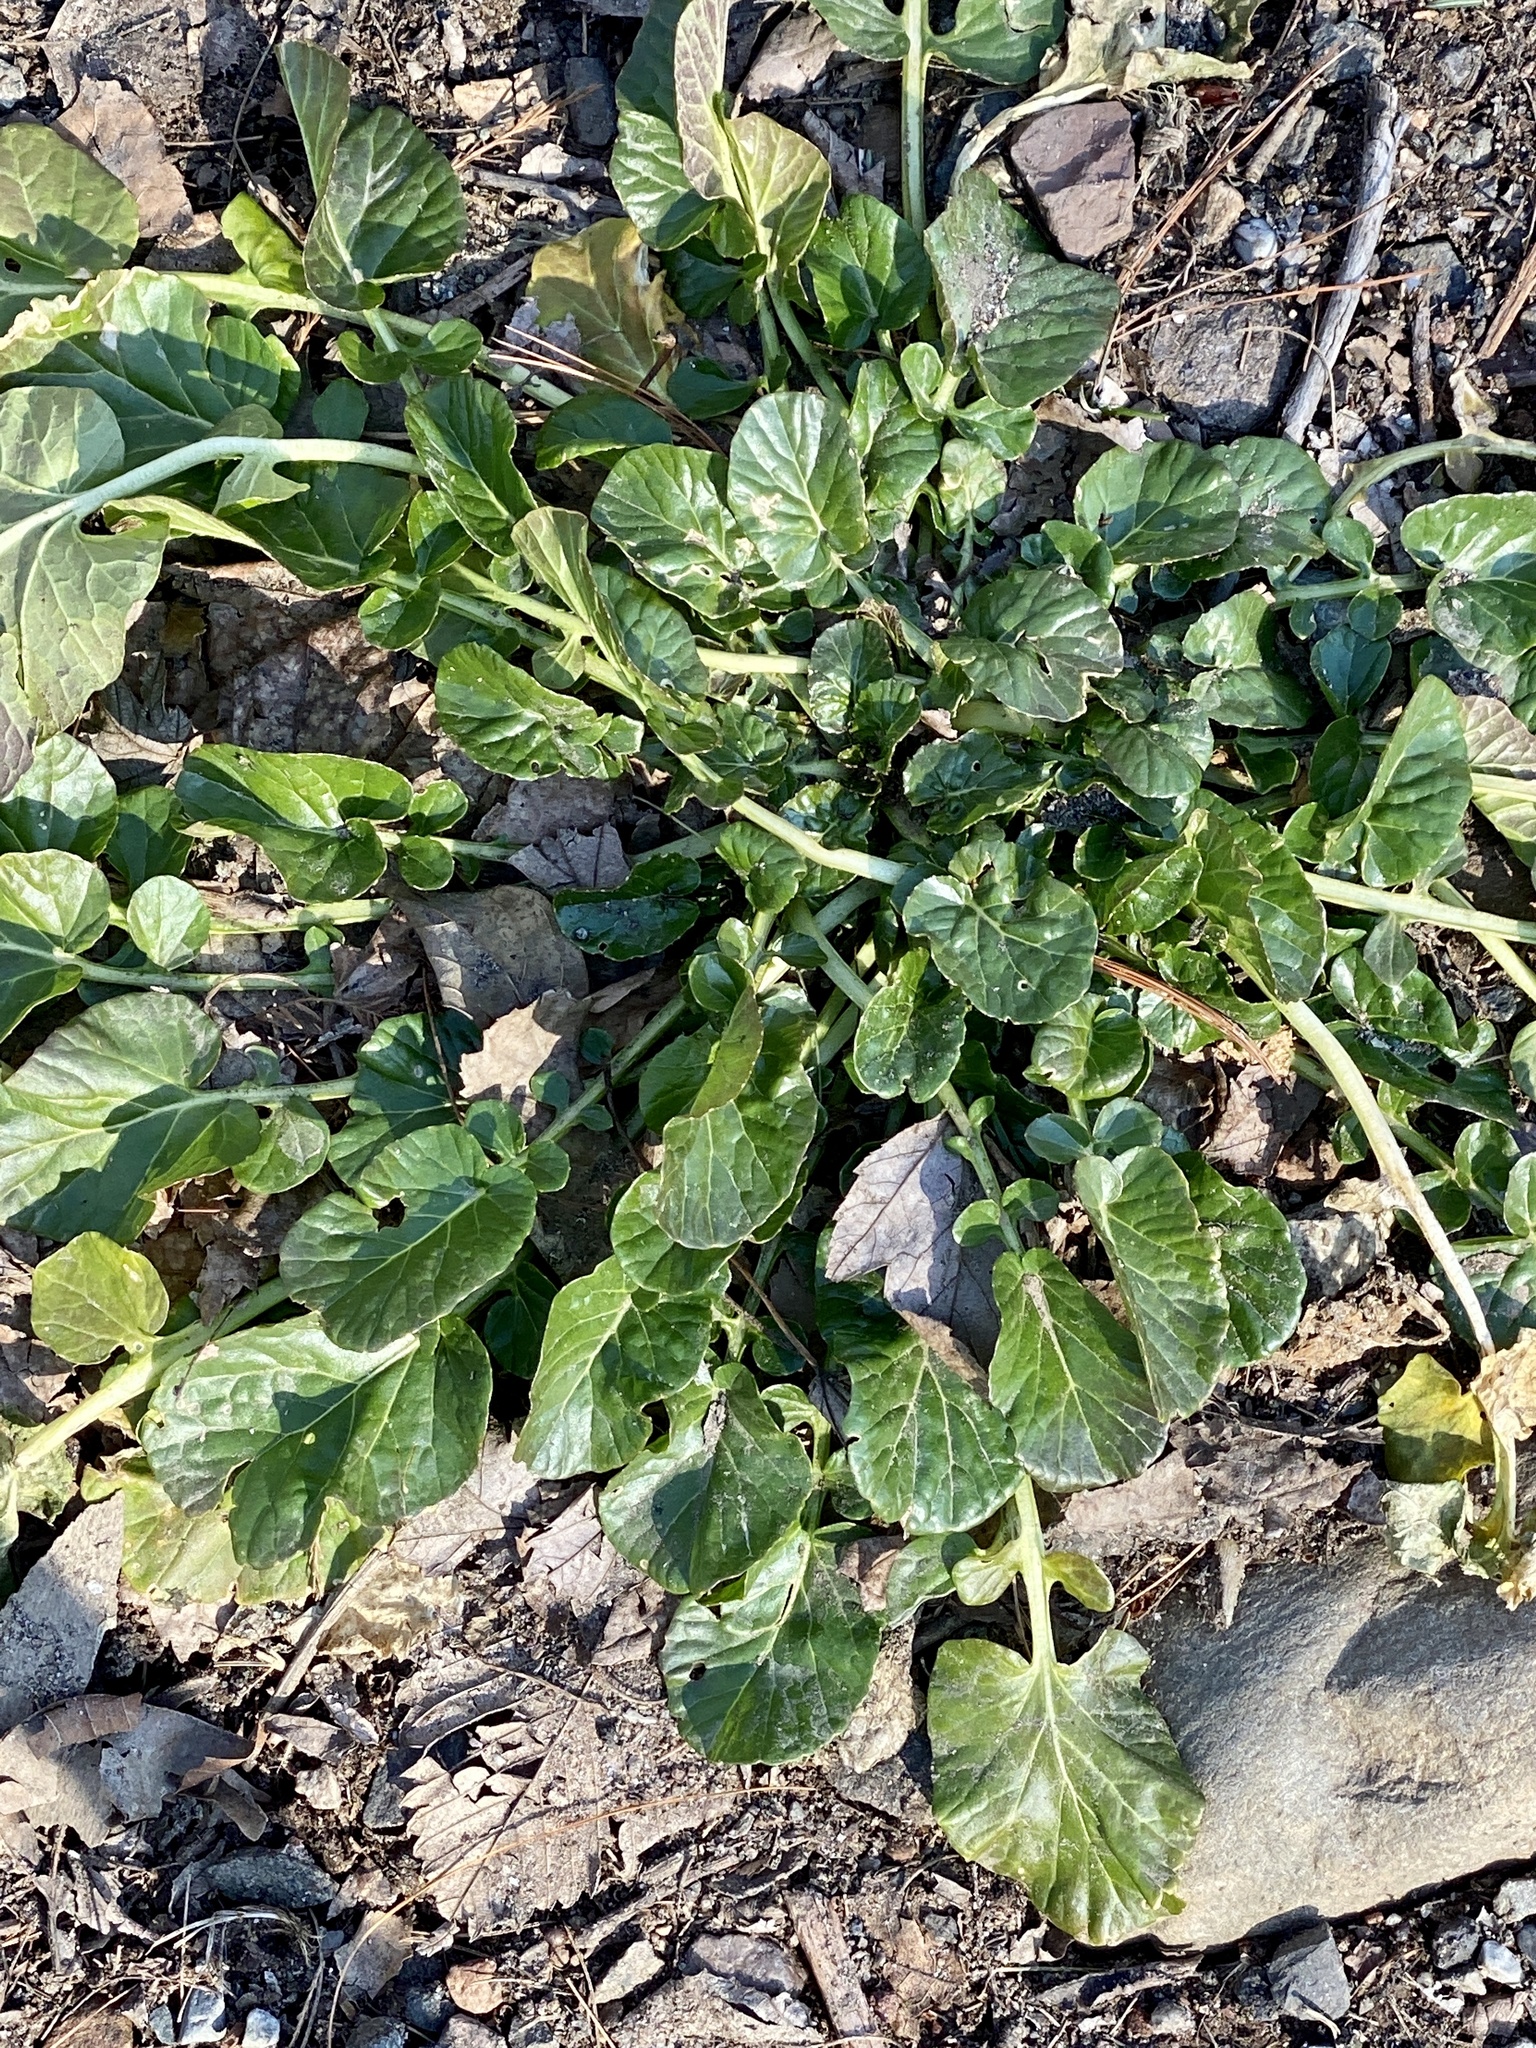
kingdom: Plantae
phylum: Tracheophyta
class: Magnoliopsida
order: Brassicales
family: Brassicaceae
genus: Barbarea
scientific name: Barbarea vulgaris
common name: Cressy-greens
